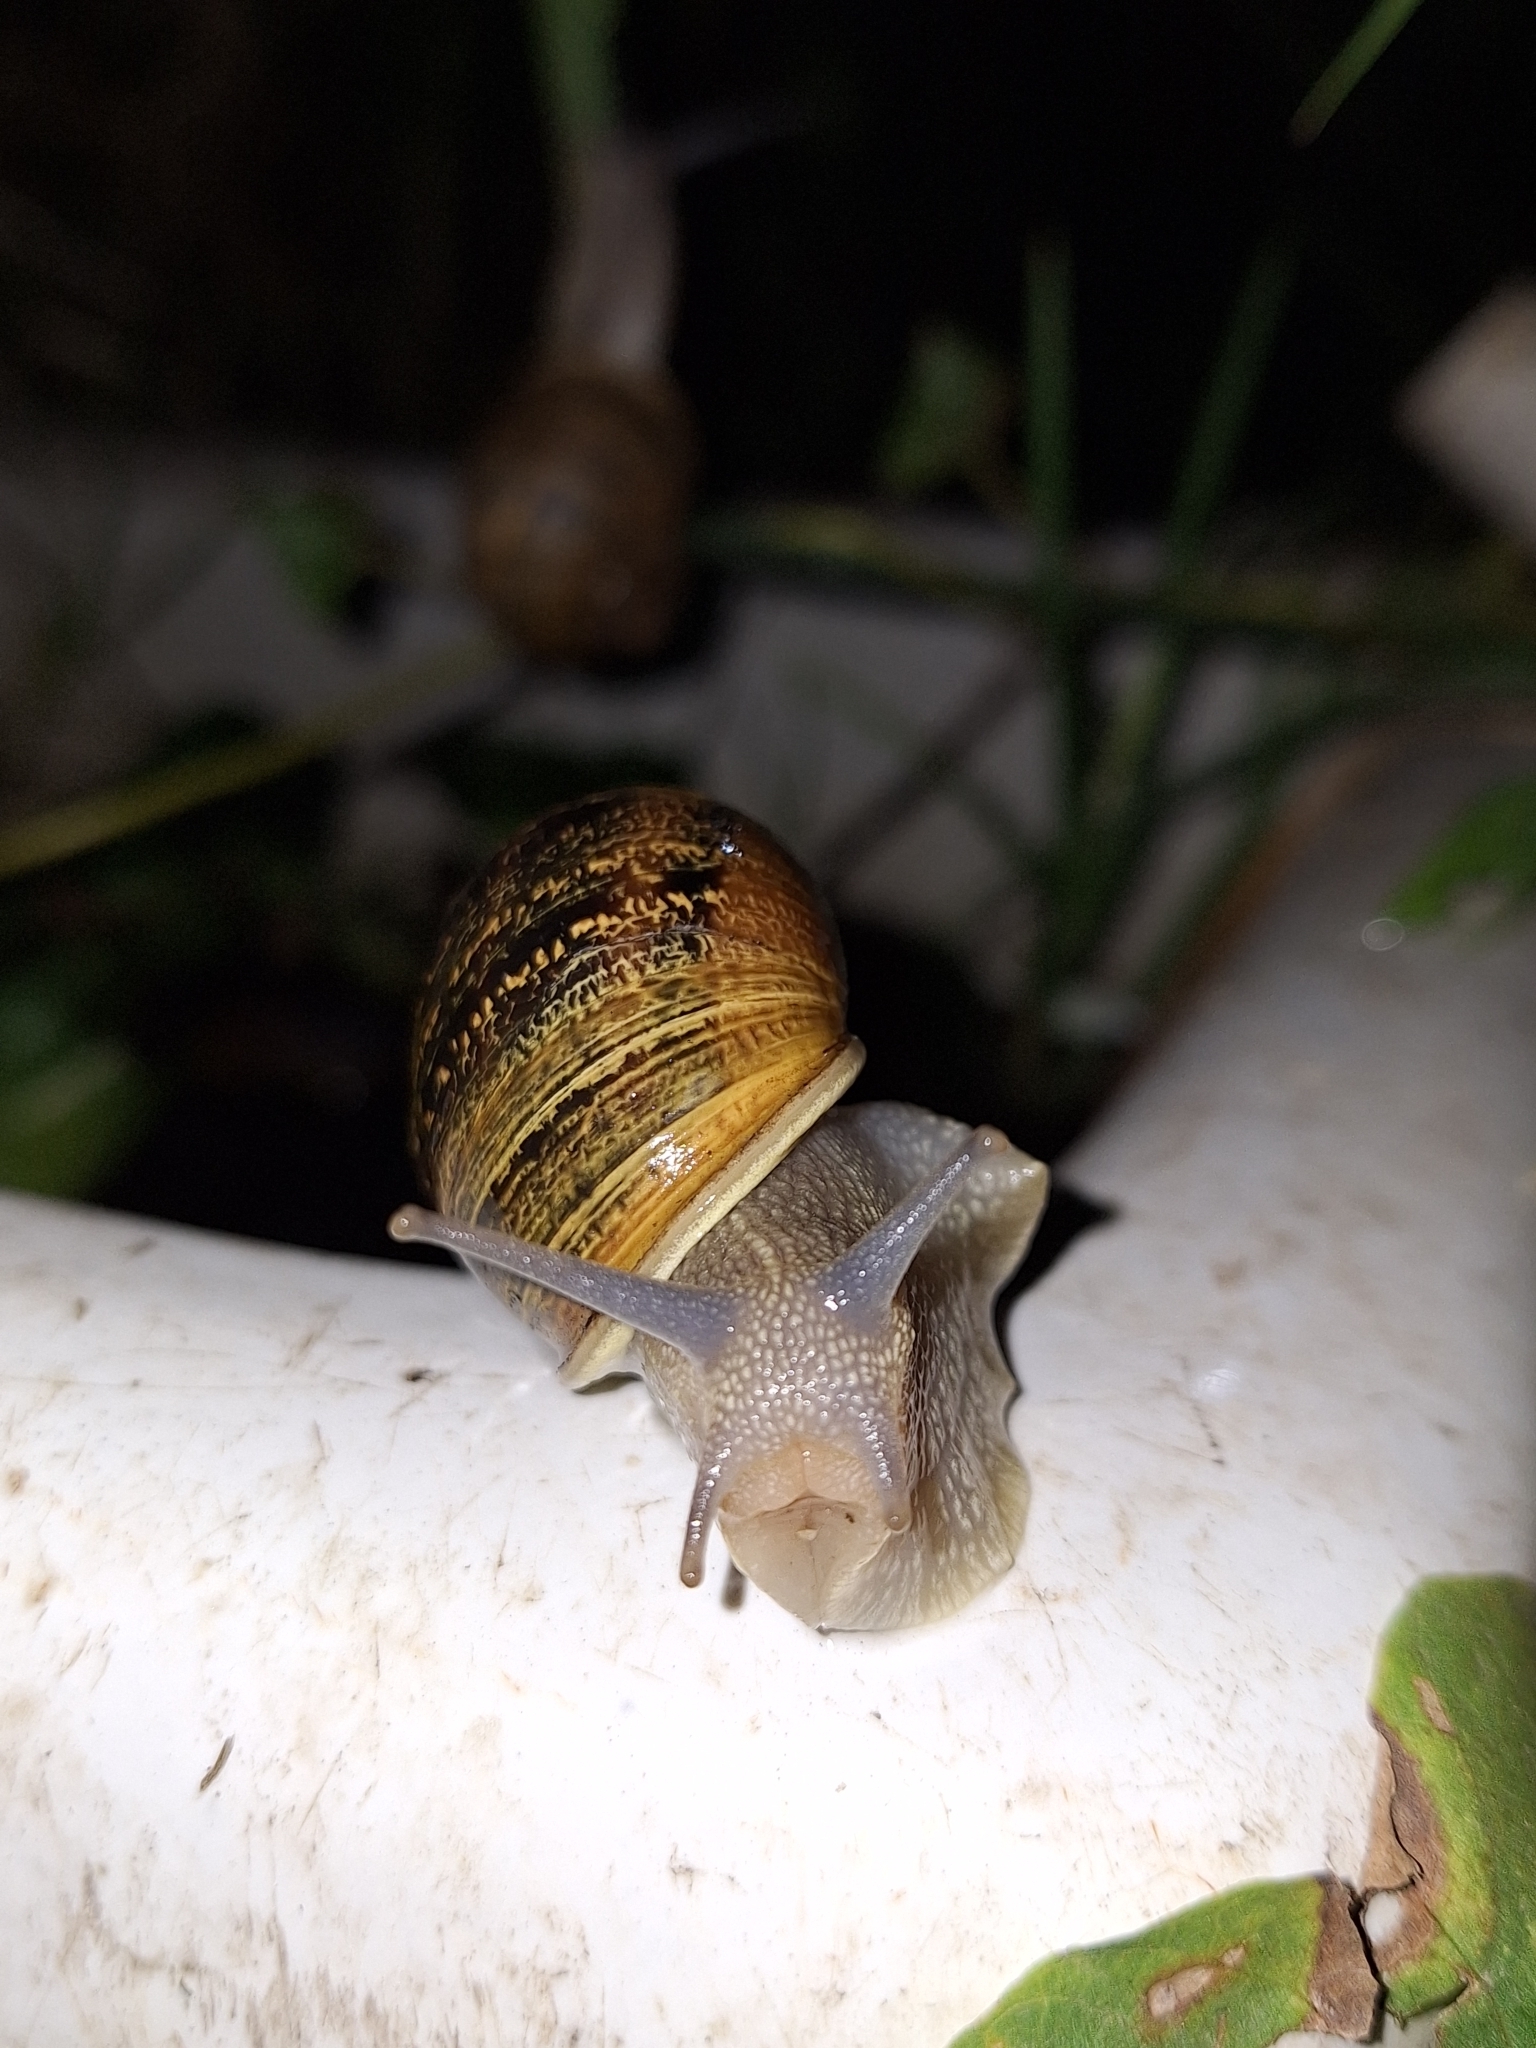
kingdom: Animalia
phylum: Mollusca
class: Gastropoda
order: Stylommatophora
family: Helicidae
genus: Cornu
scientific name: Cornu aspersum
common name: Brown garden snail
